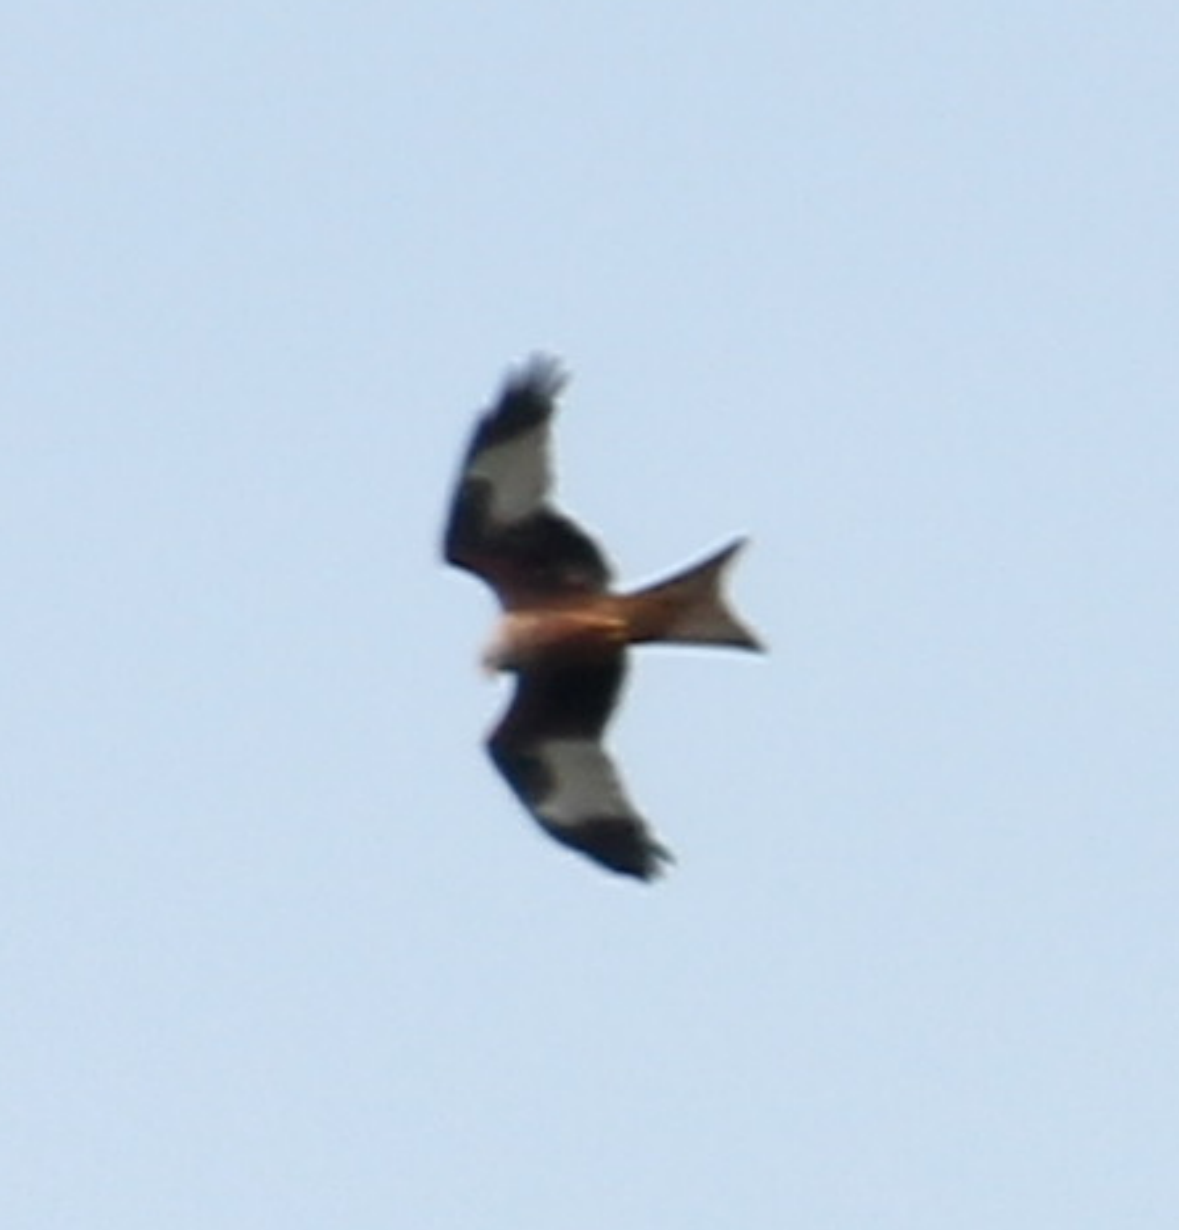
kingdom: Animalia
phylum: Chordata
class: Aves
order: Accipitriformes
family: Accipitridae
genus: Milvus
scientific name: Milvus milvus
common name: Red kite
